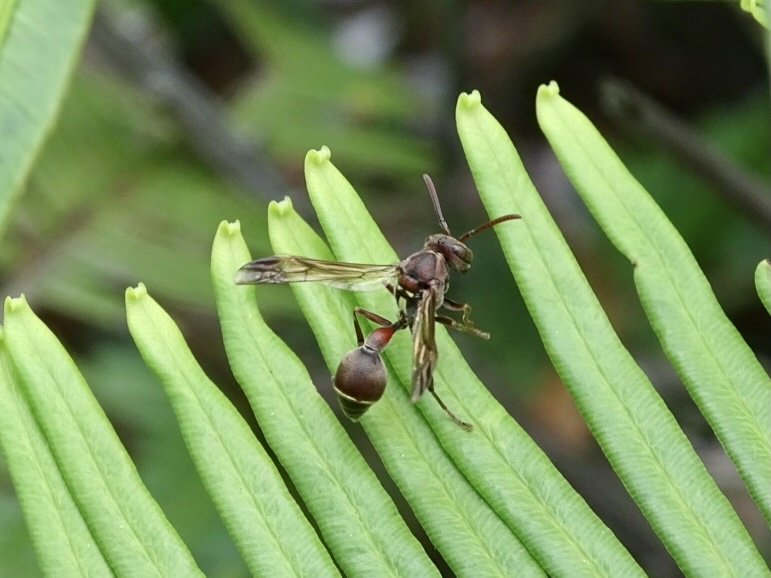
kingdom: Animalia
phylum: Arthropoda
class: Insecta
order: Hymenoptera
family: Vespidae
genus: Ropalidia
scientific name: Ropalidia hongkongensis
